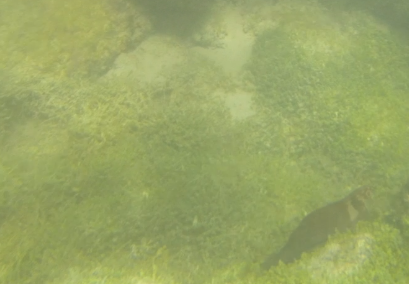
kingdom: Animalia
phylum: Chordata
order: Perciformes
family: Blenniidae
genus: Ophioblennius
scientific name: Ophioblennius steindachneri
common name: Panamic fanged blenny
